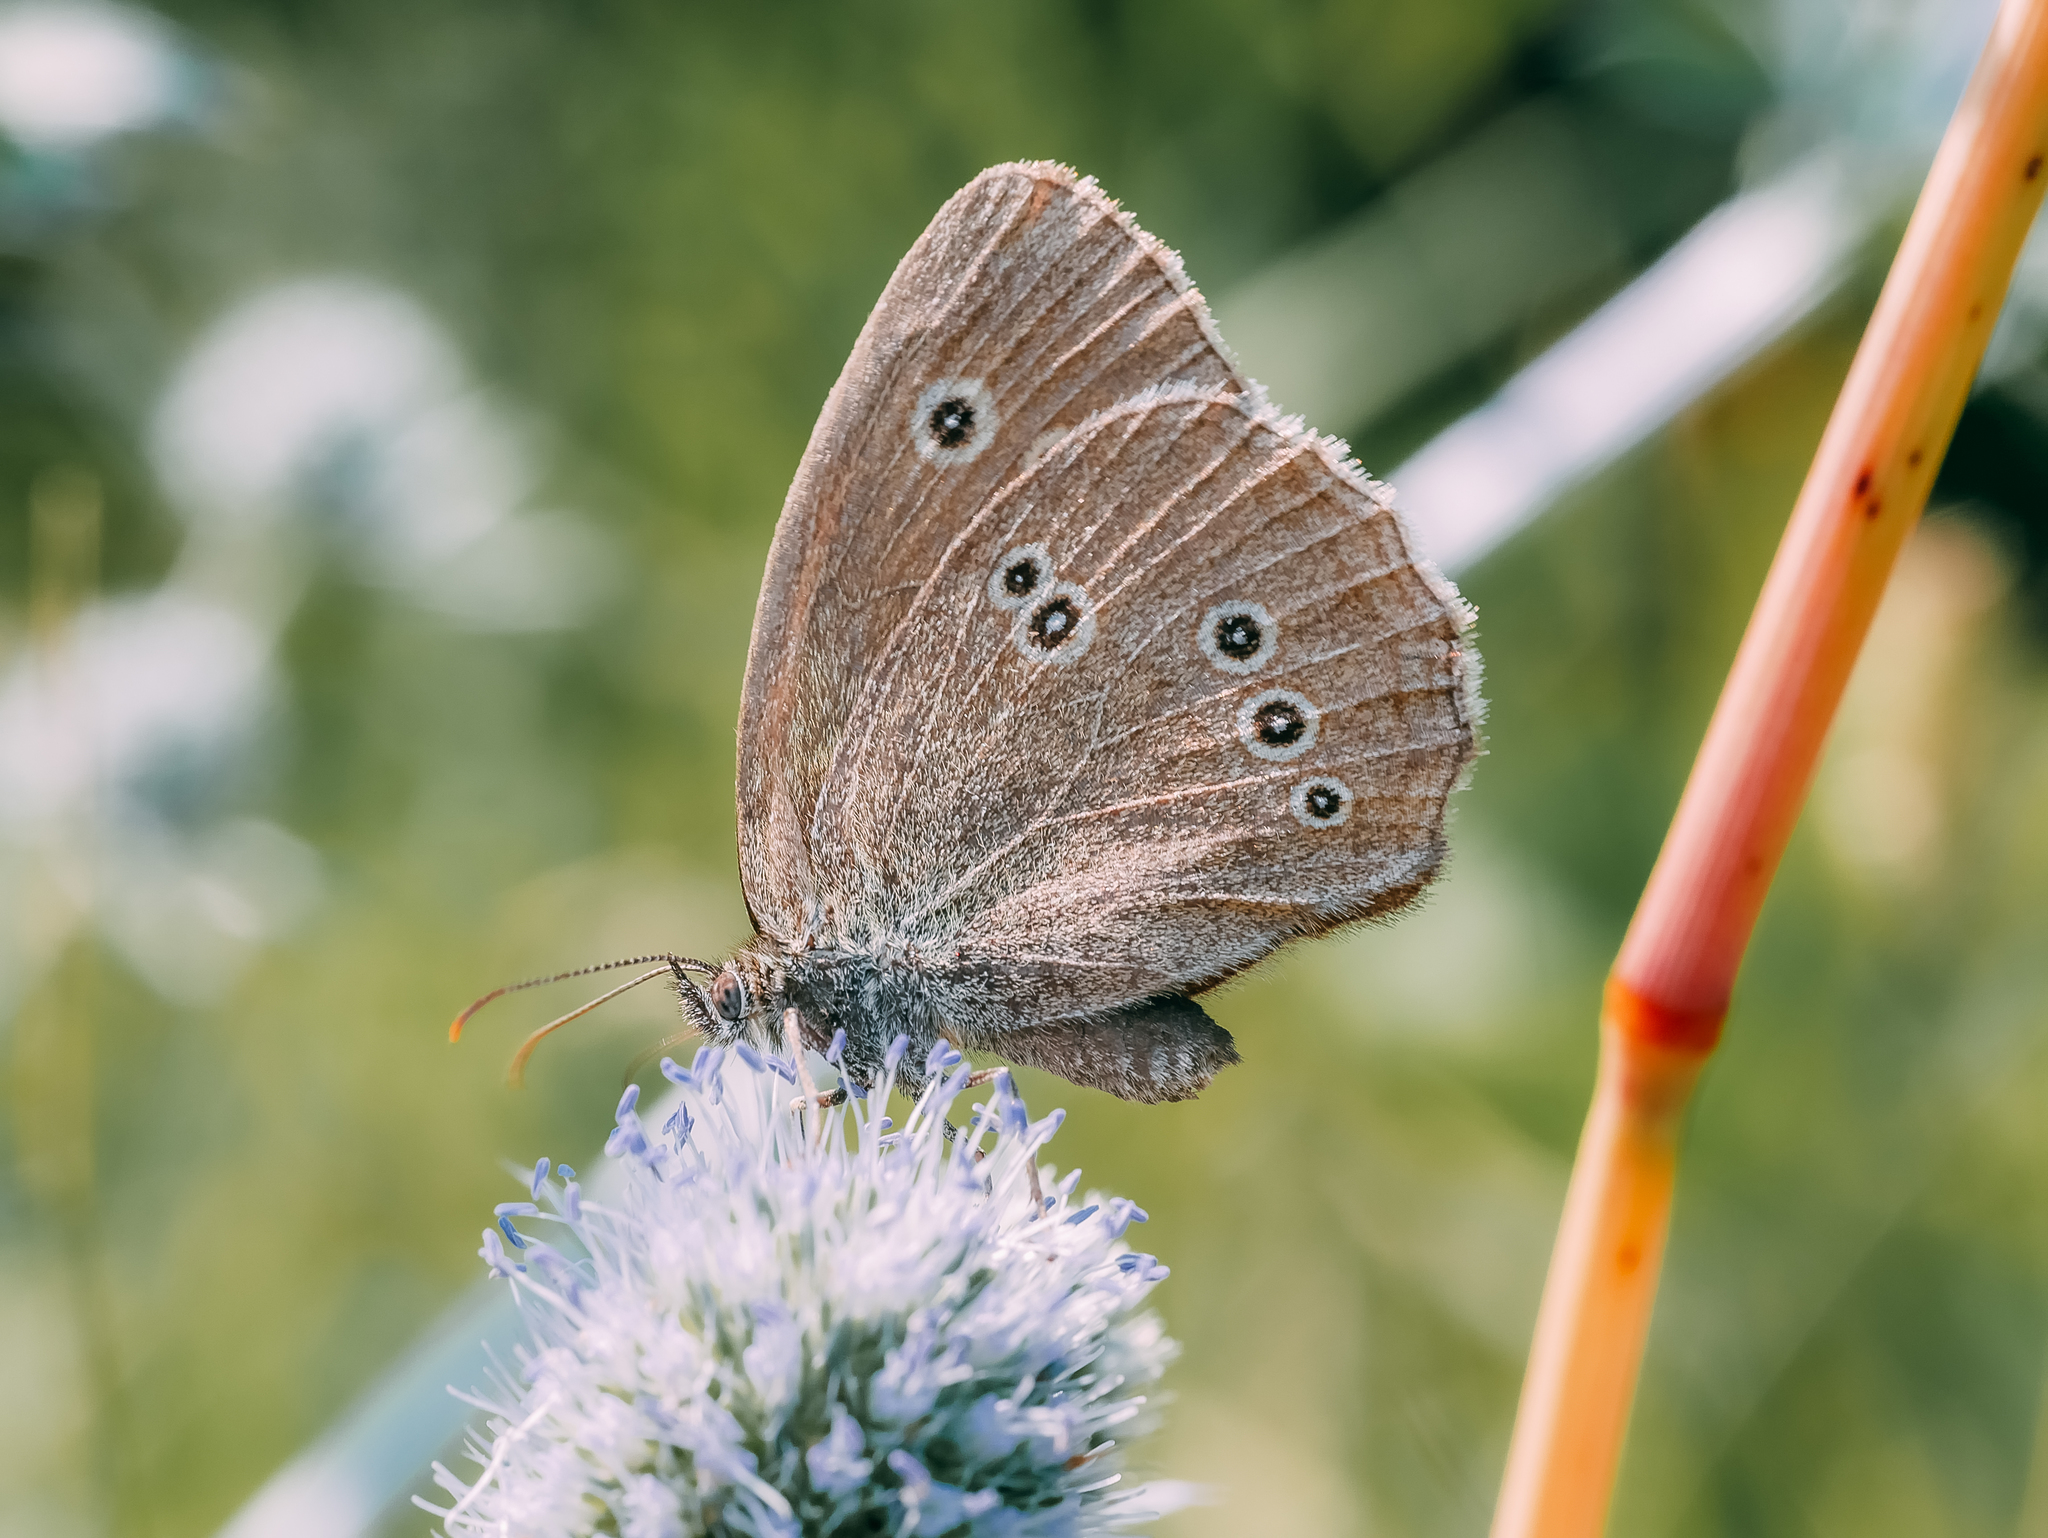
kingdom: Animalia
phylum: Arthropoda
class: Insecta
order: Lepidoptera
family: Nymphalidae
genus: Aphantopus
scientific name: Aphantopus hyperantus
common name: Ringlet
